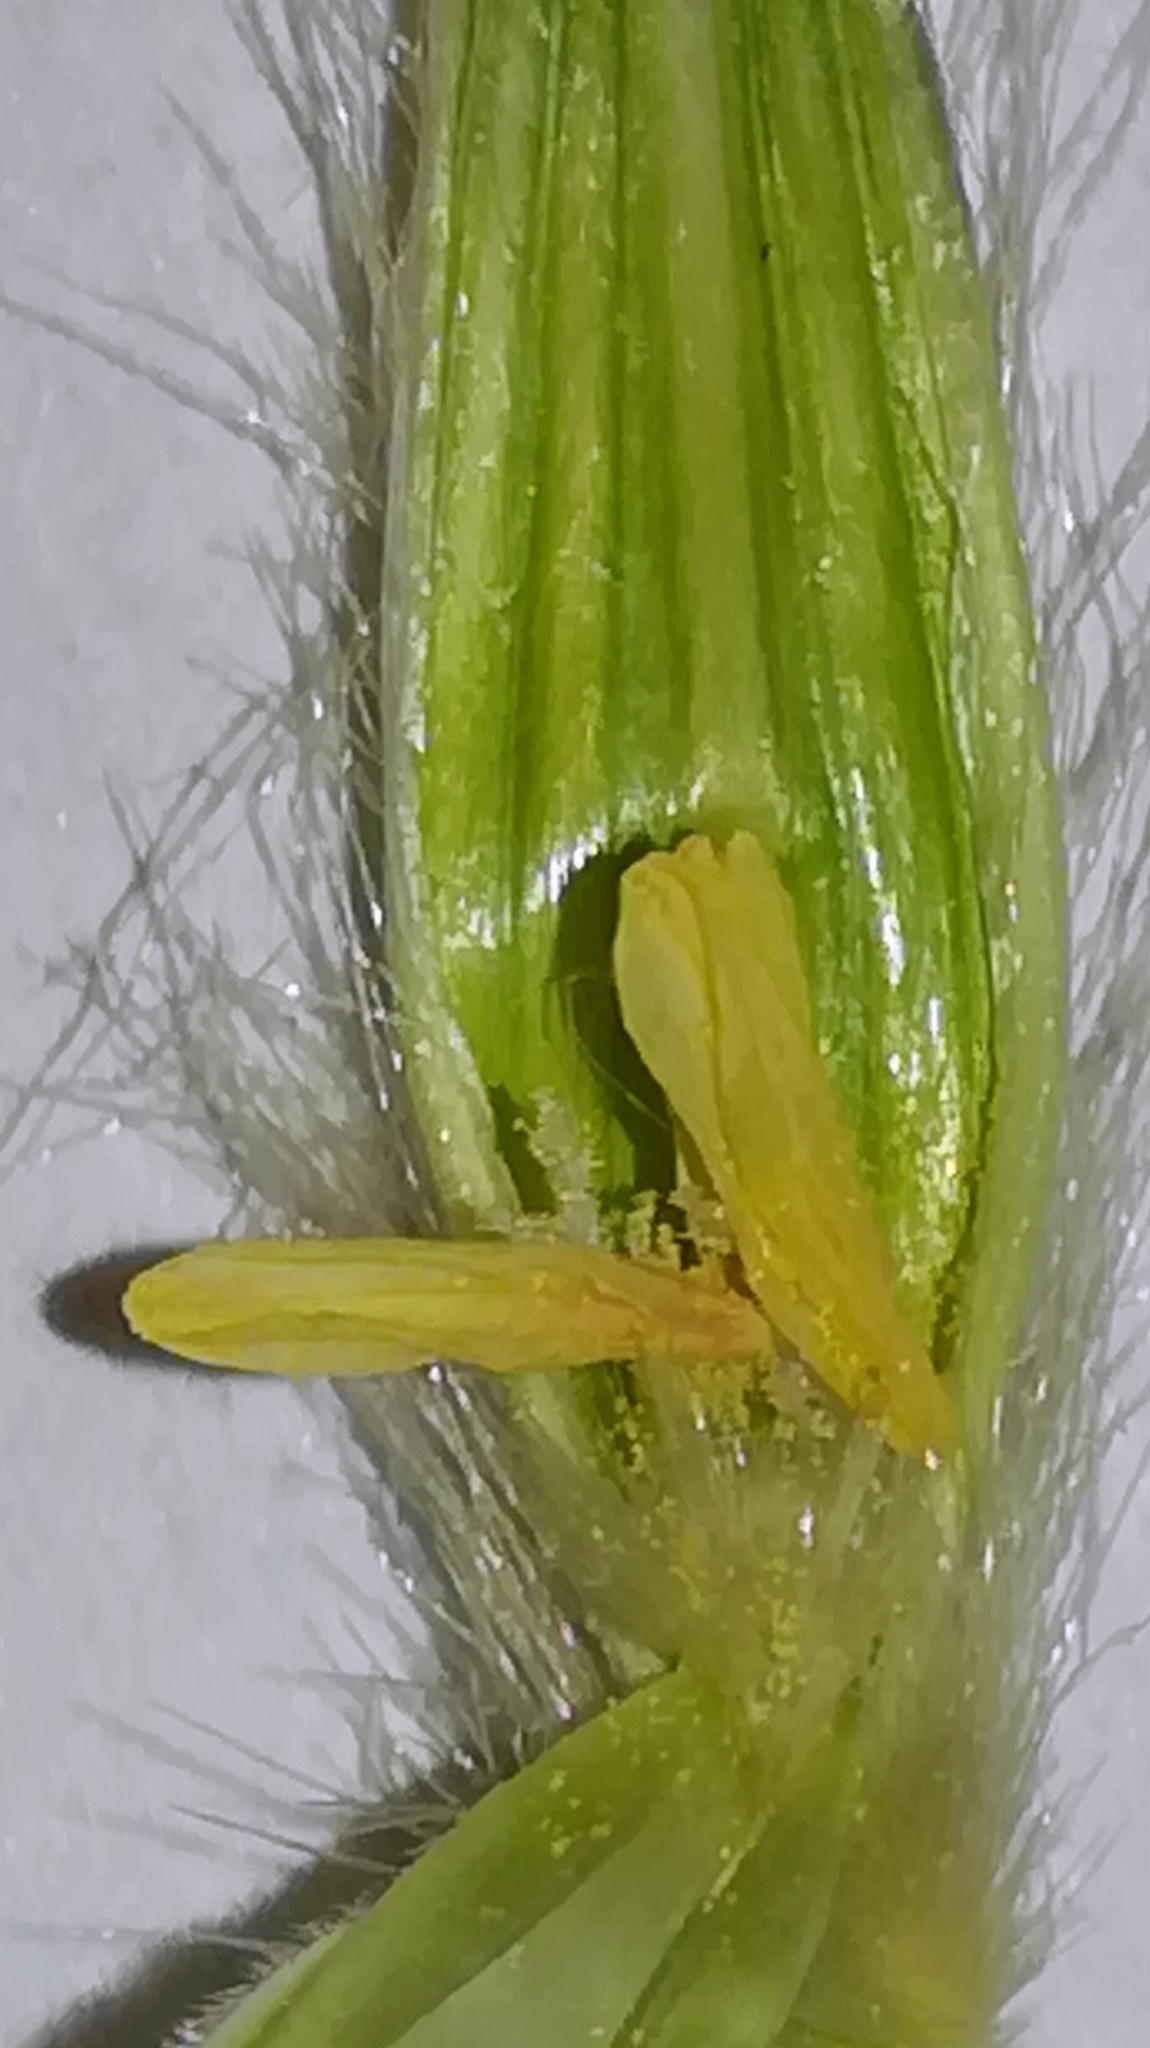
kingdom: Plantae
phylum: Tracheophyta
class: Liliopsida
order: Poales
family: Poaceae
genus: Avena
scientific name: Avena sterilis
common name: Animated oat
